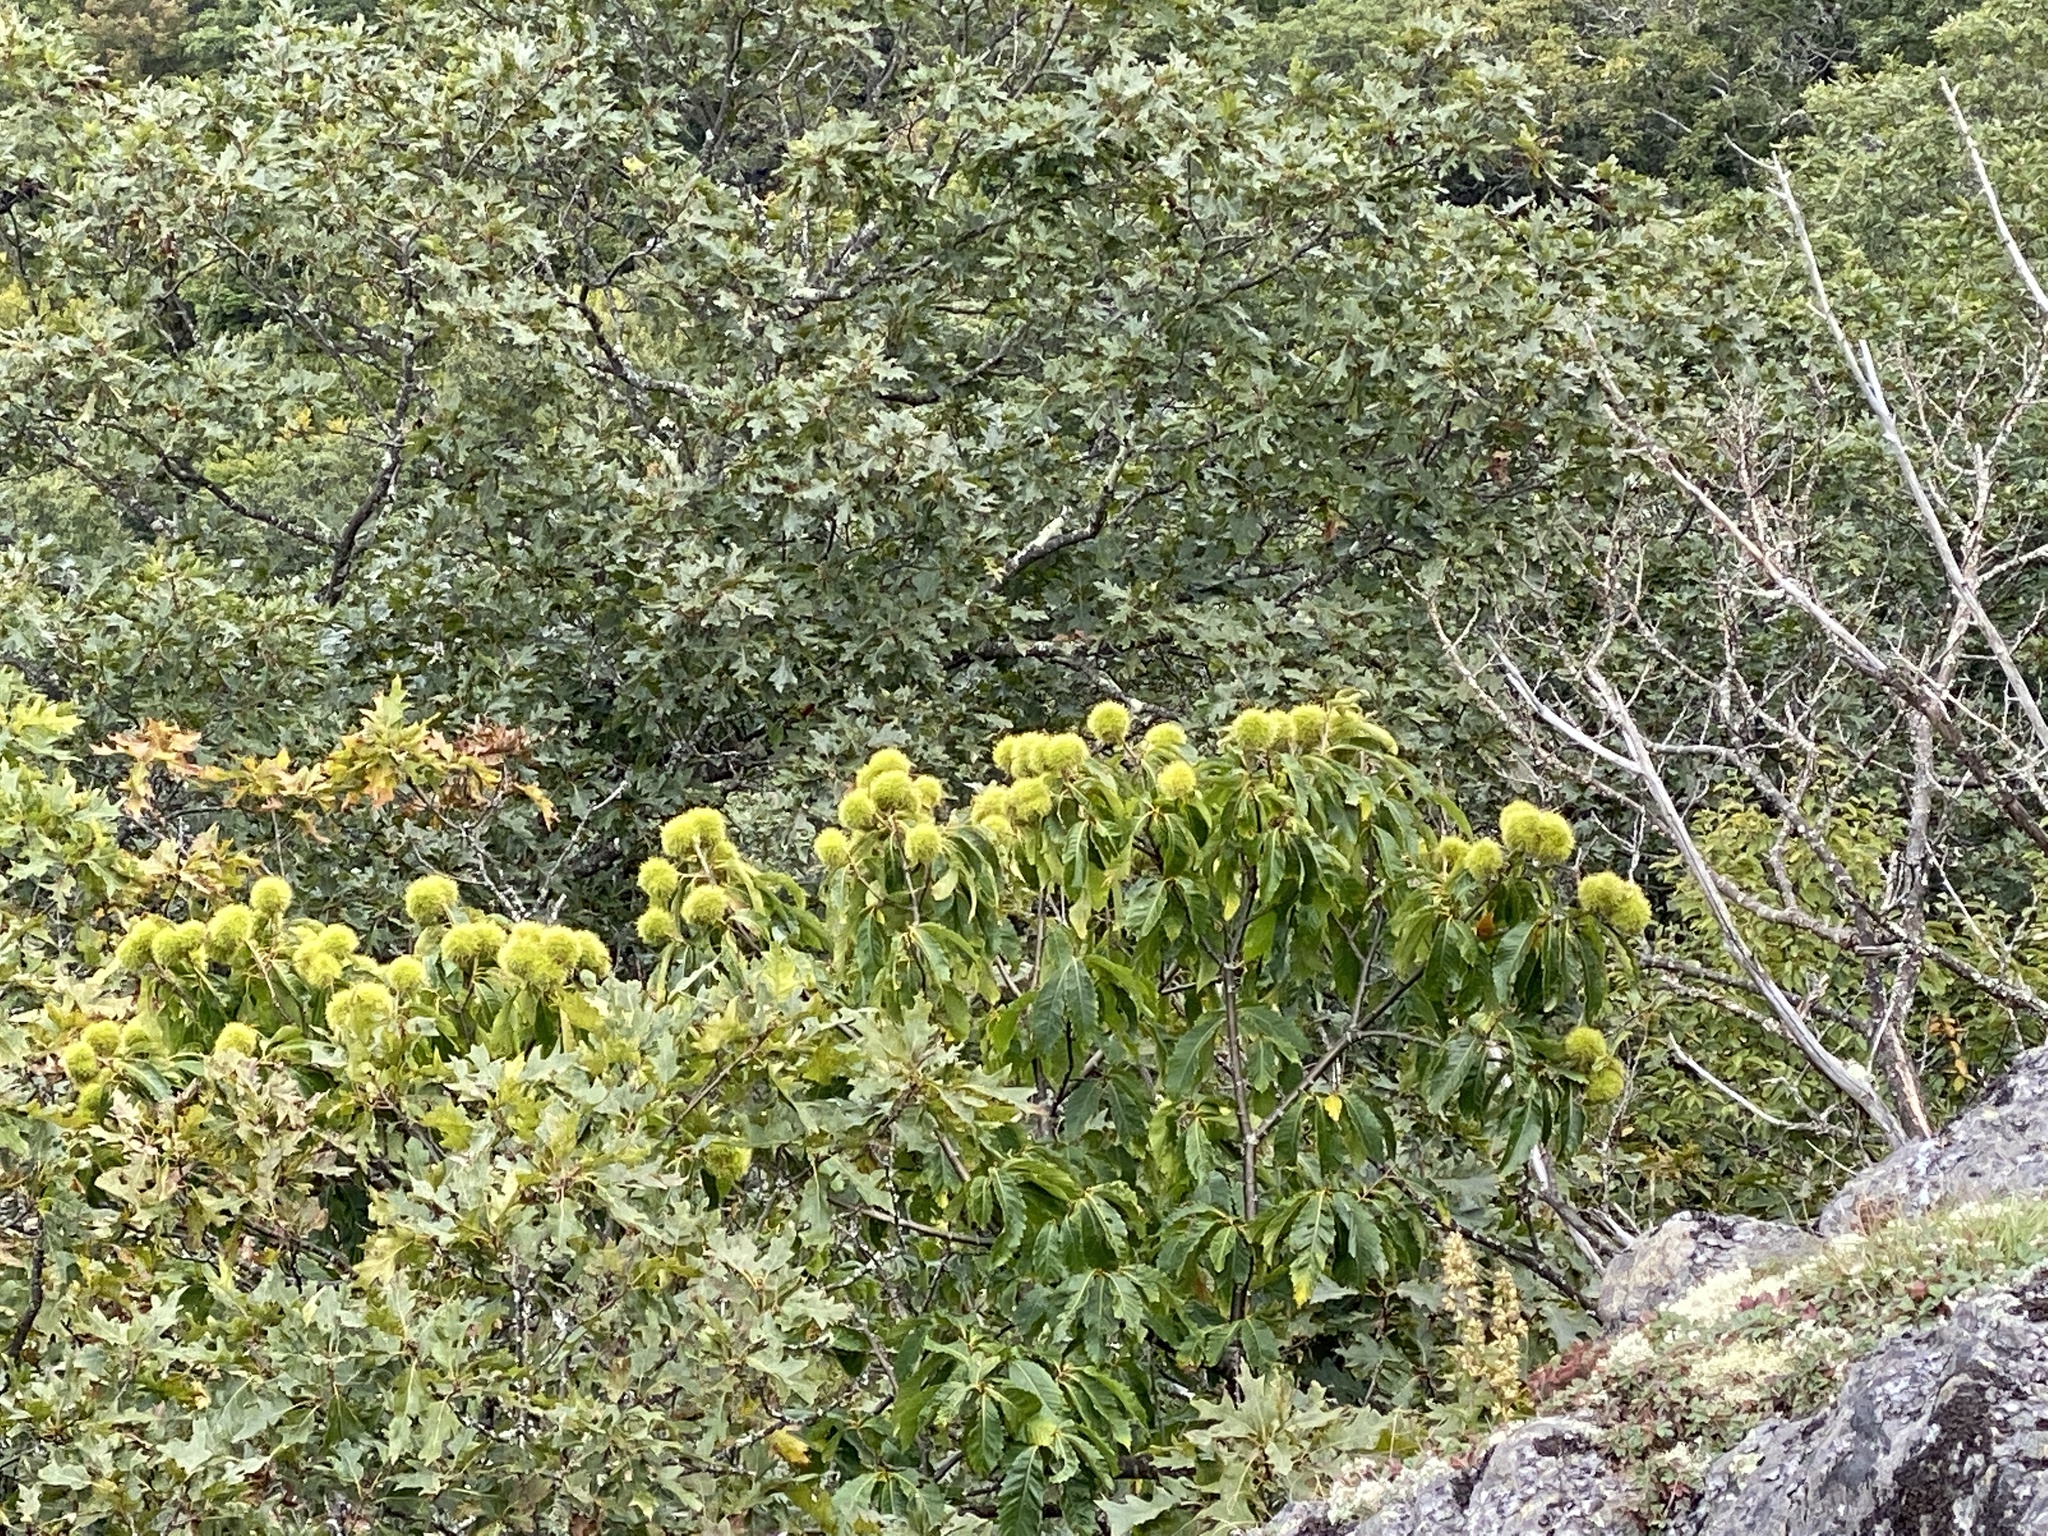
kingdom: Plantae
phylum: Tracheophyta
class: Magnoliopsida
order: Fagales
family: Fagaceae
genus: Castanea
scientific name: Castanea dentata
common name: American chestnut
